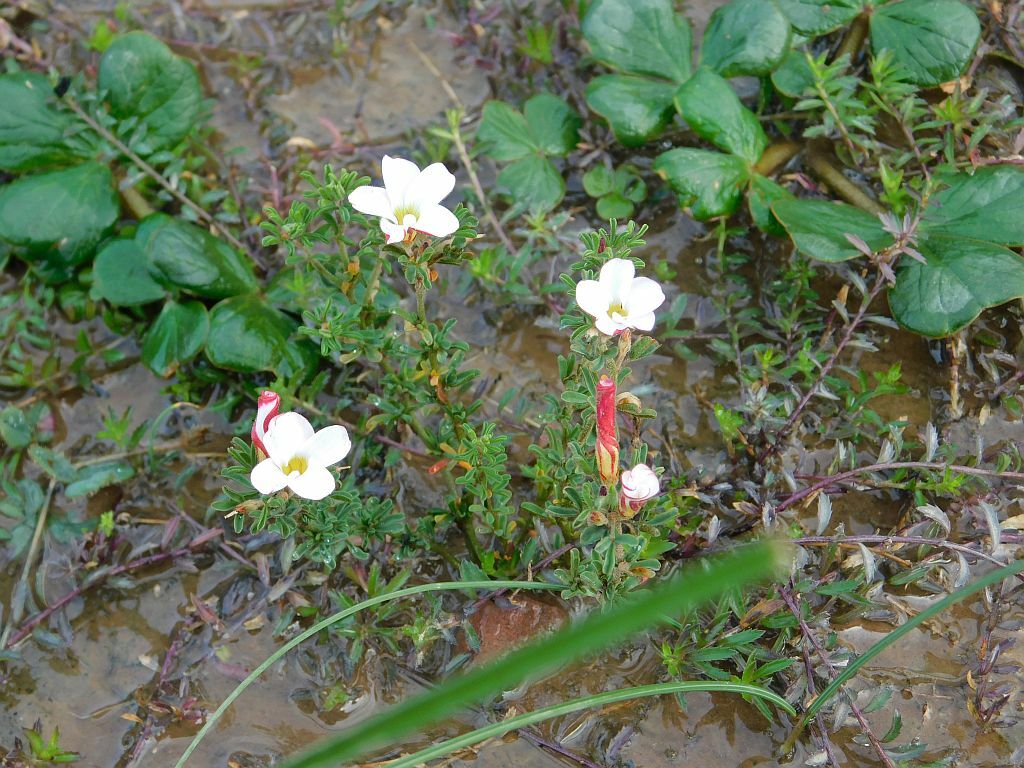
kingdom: Plantae
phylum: Tracheophyta
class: Magnoliopsida
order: Oxalidales
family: Oxalidaceae
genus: Oxalis
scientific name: Oxalis multicaulis
